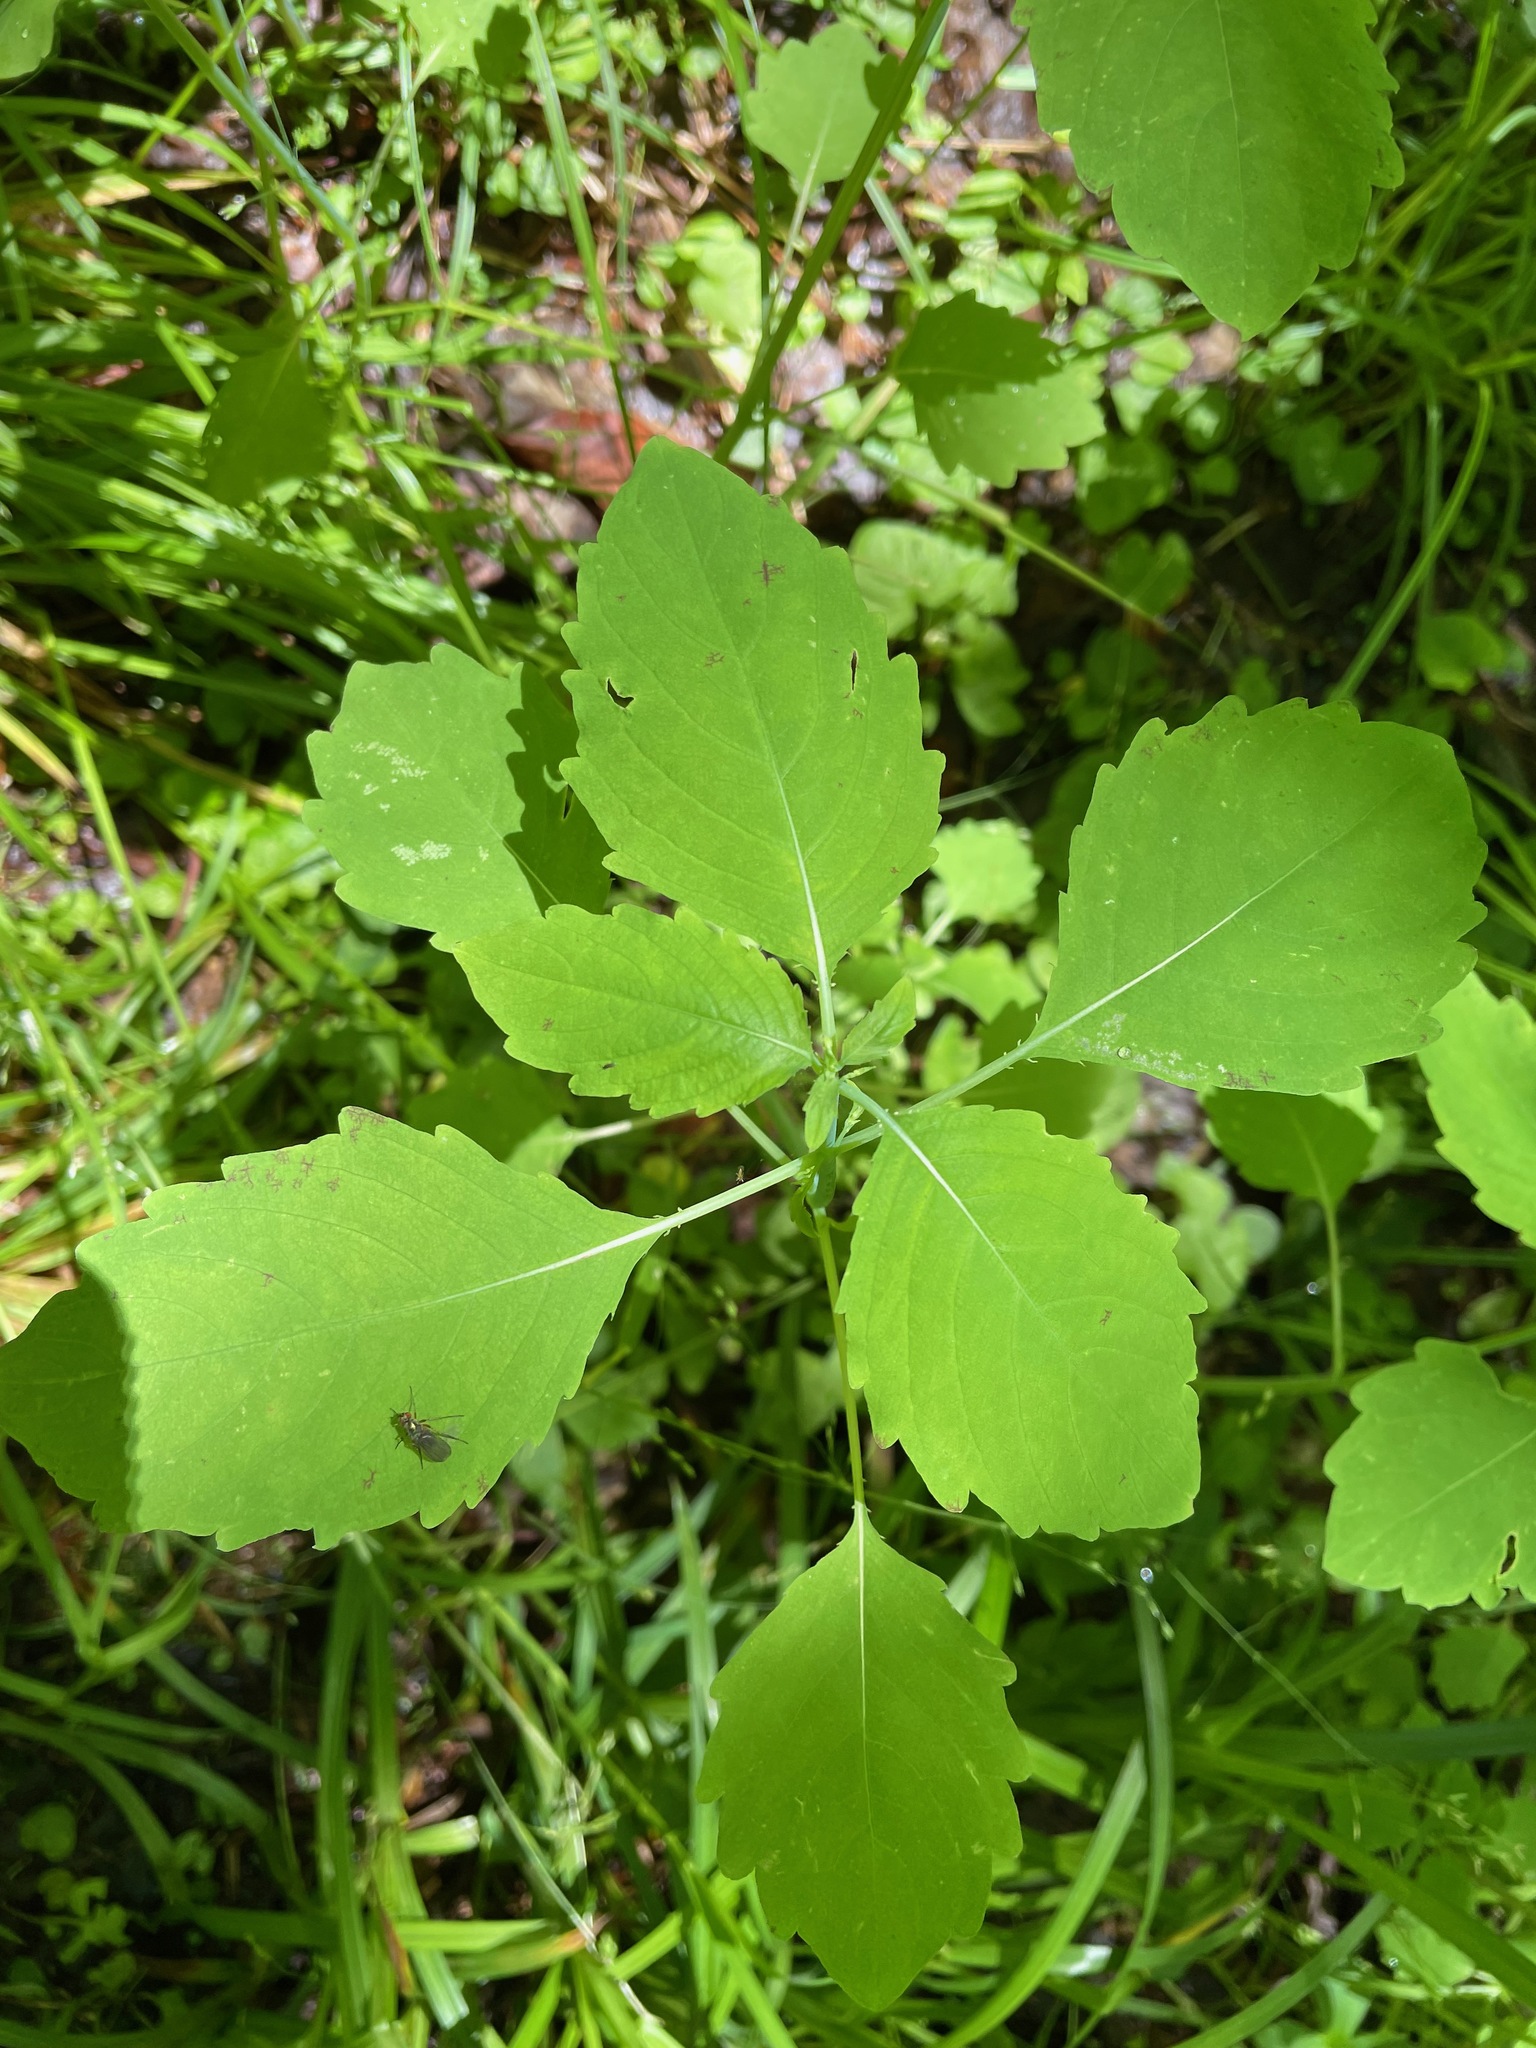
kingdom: Plantae
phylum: Tracheophyta
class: Magnoliopsida
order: Ericales
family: Balsaminaceae
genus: Impatiens
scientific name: Impatiens
